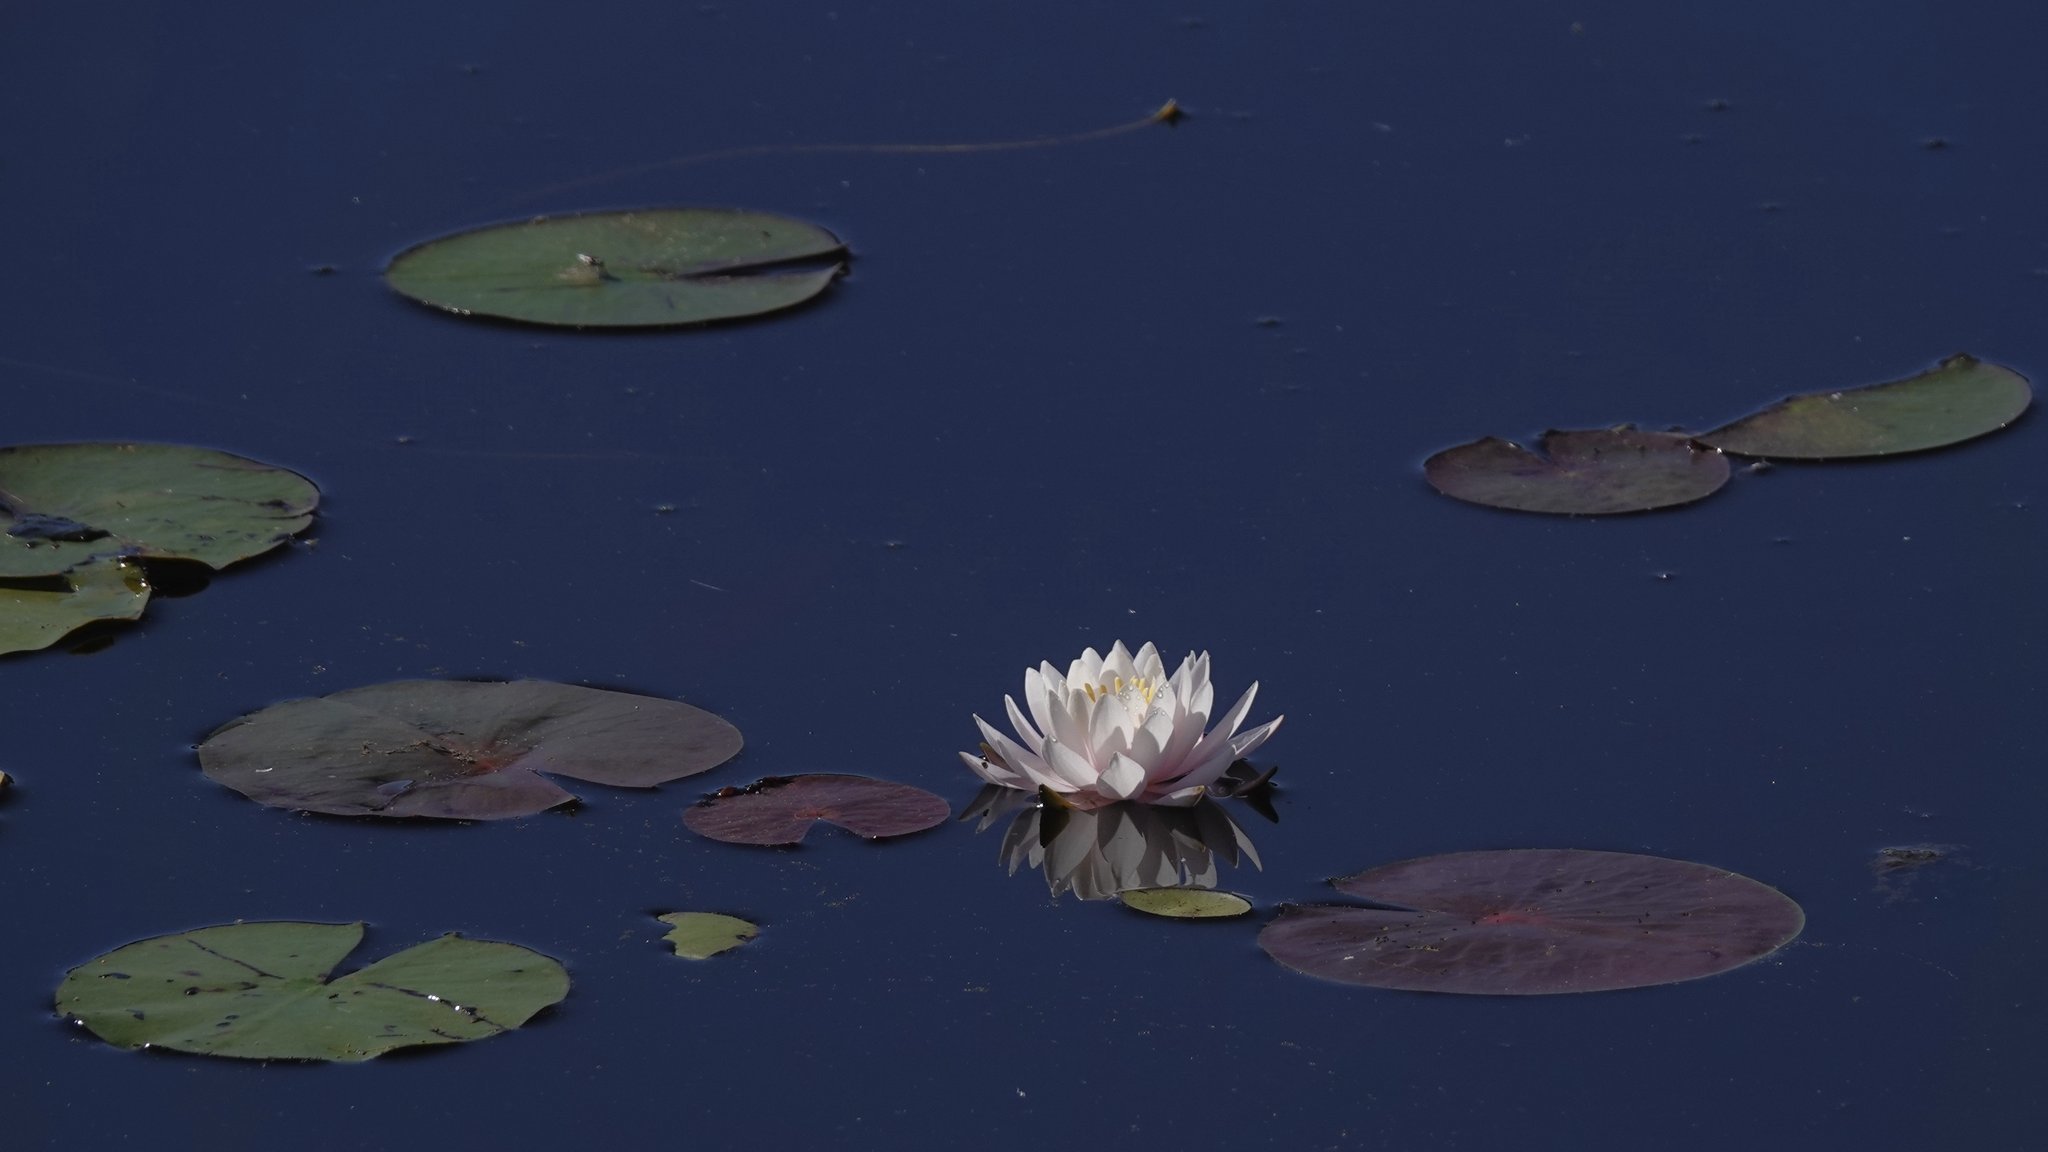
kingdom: Plantae
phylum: Tracheophyta
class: Magnoliopsida
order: Nymphaeales
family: Nymphaeaceae
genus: Nymphaea
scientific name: Nymphaea odorata
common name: Fragrant water-lily
